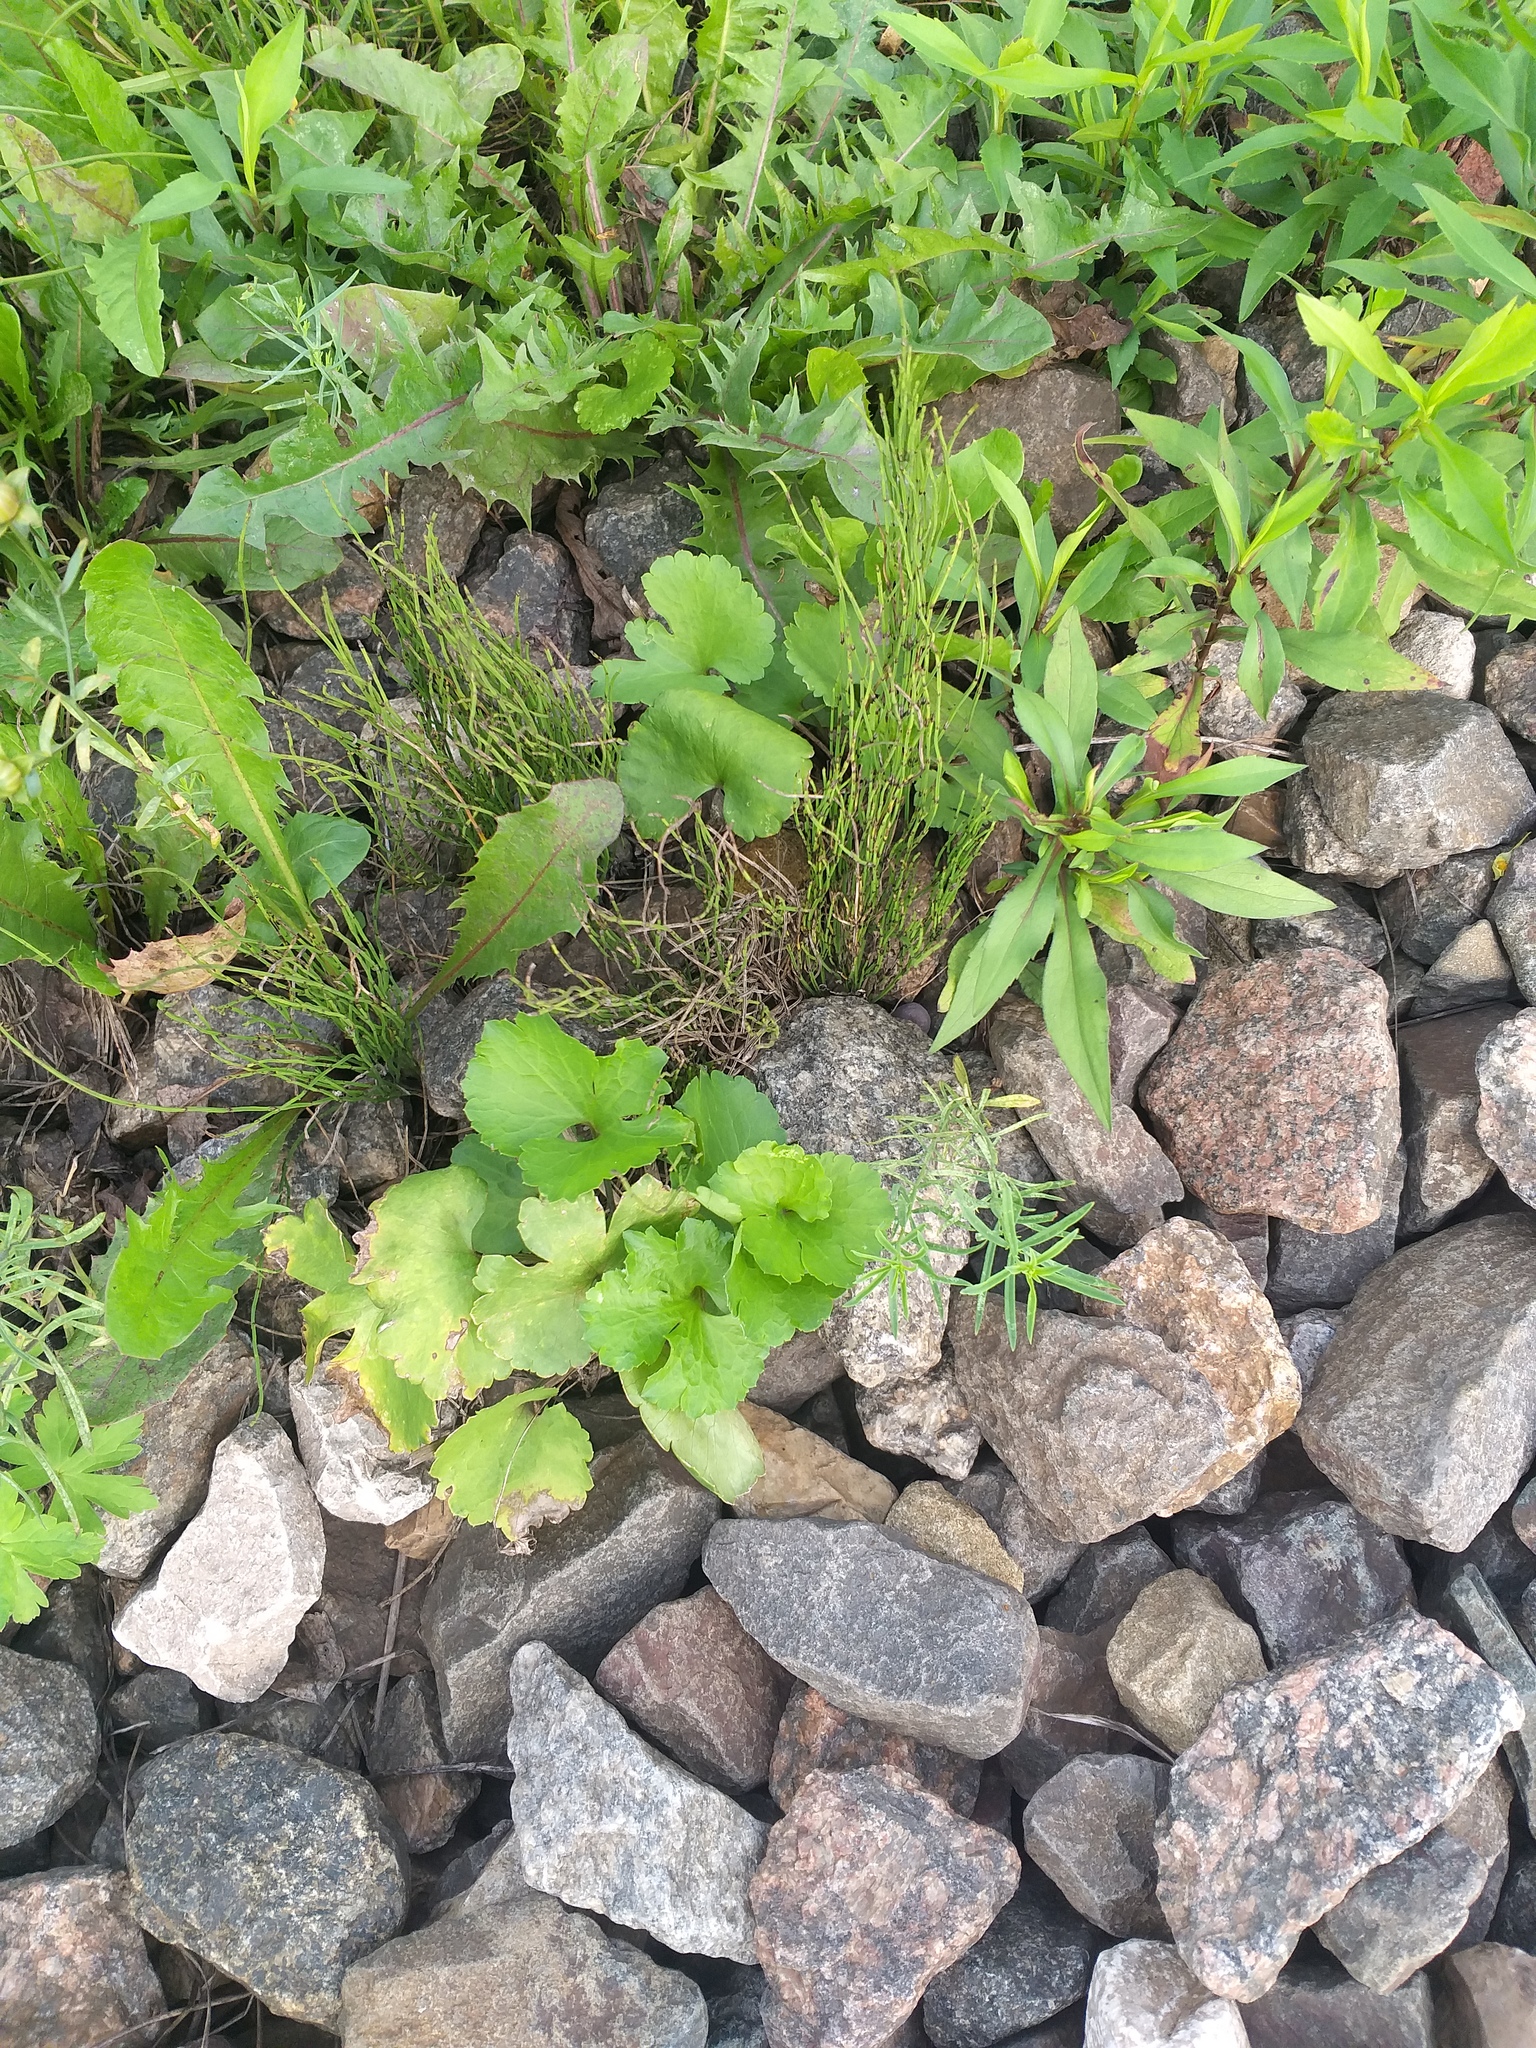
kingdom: Plantae
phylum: Tracheophyta
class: Magnoliopsida
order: Ranunculales
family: Ranunculaceae
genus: Ranunculus
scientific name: Ranunculus fallax
